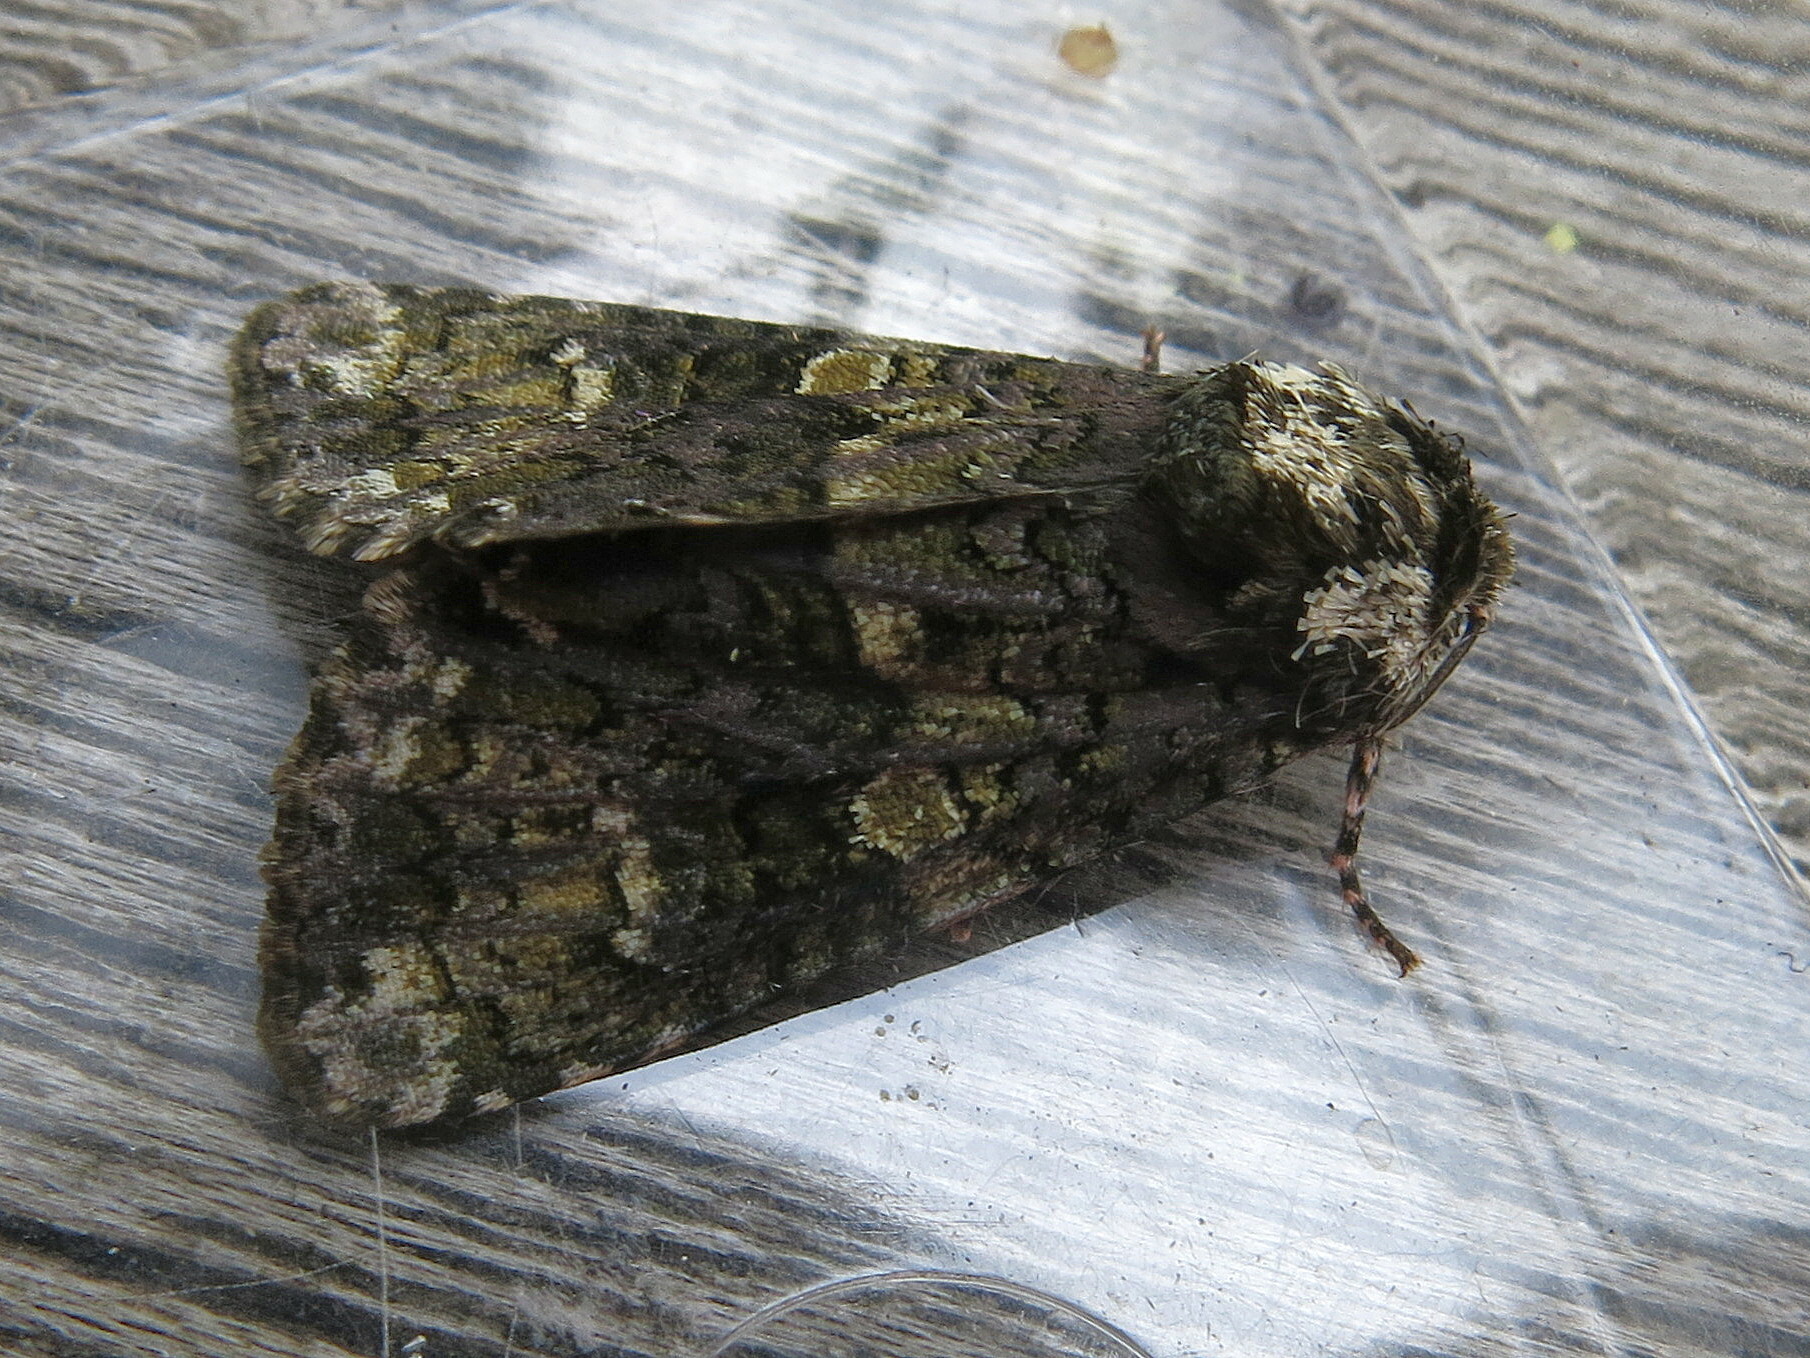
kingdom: Animalia
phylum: Arthropoda
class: Insecta
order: Lepidoptera
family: Noctuidae
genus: Craniophora
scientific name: Craniophora ligustri
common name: Coronet
